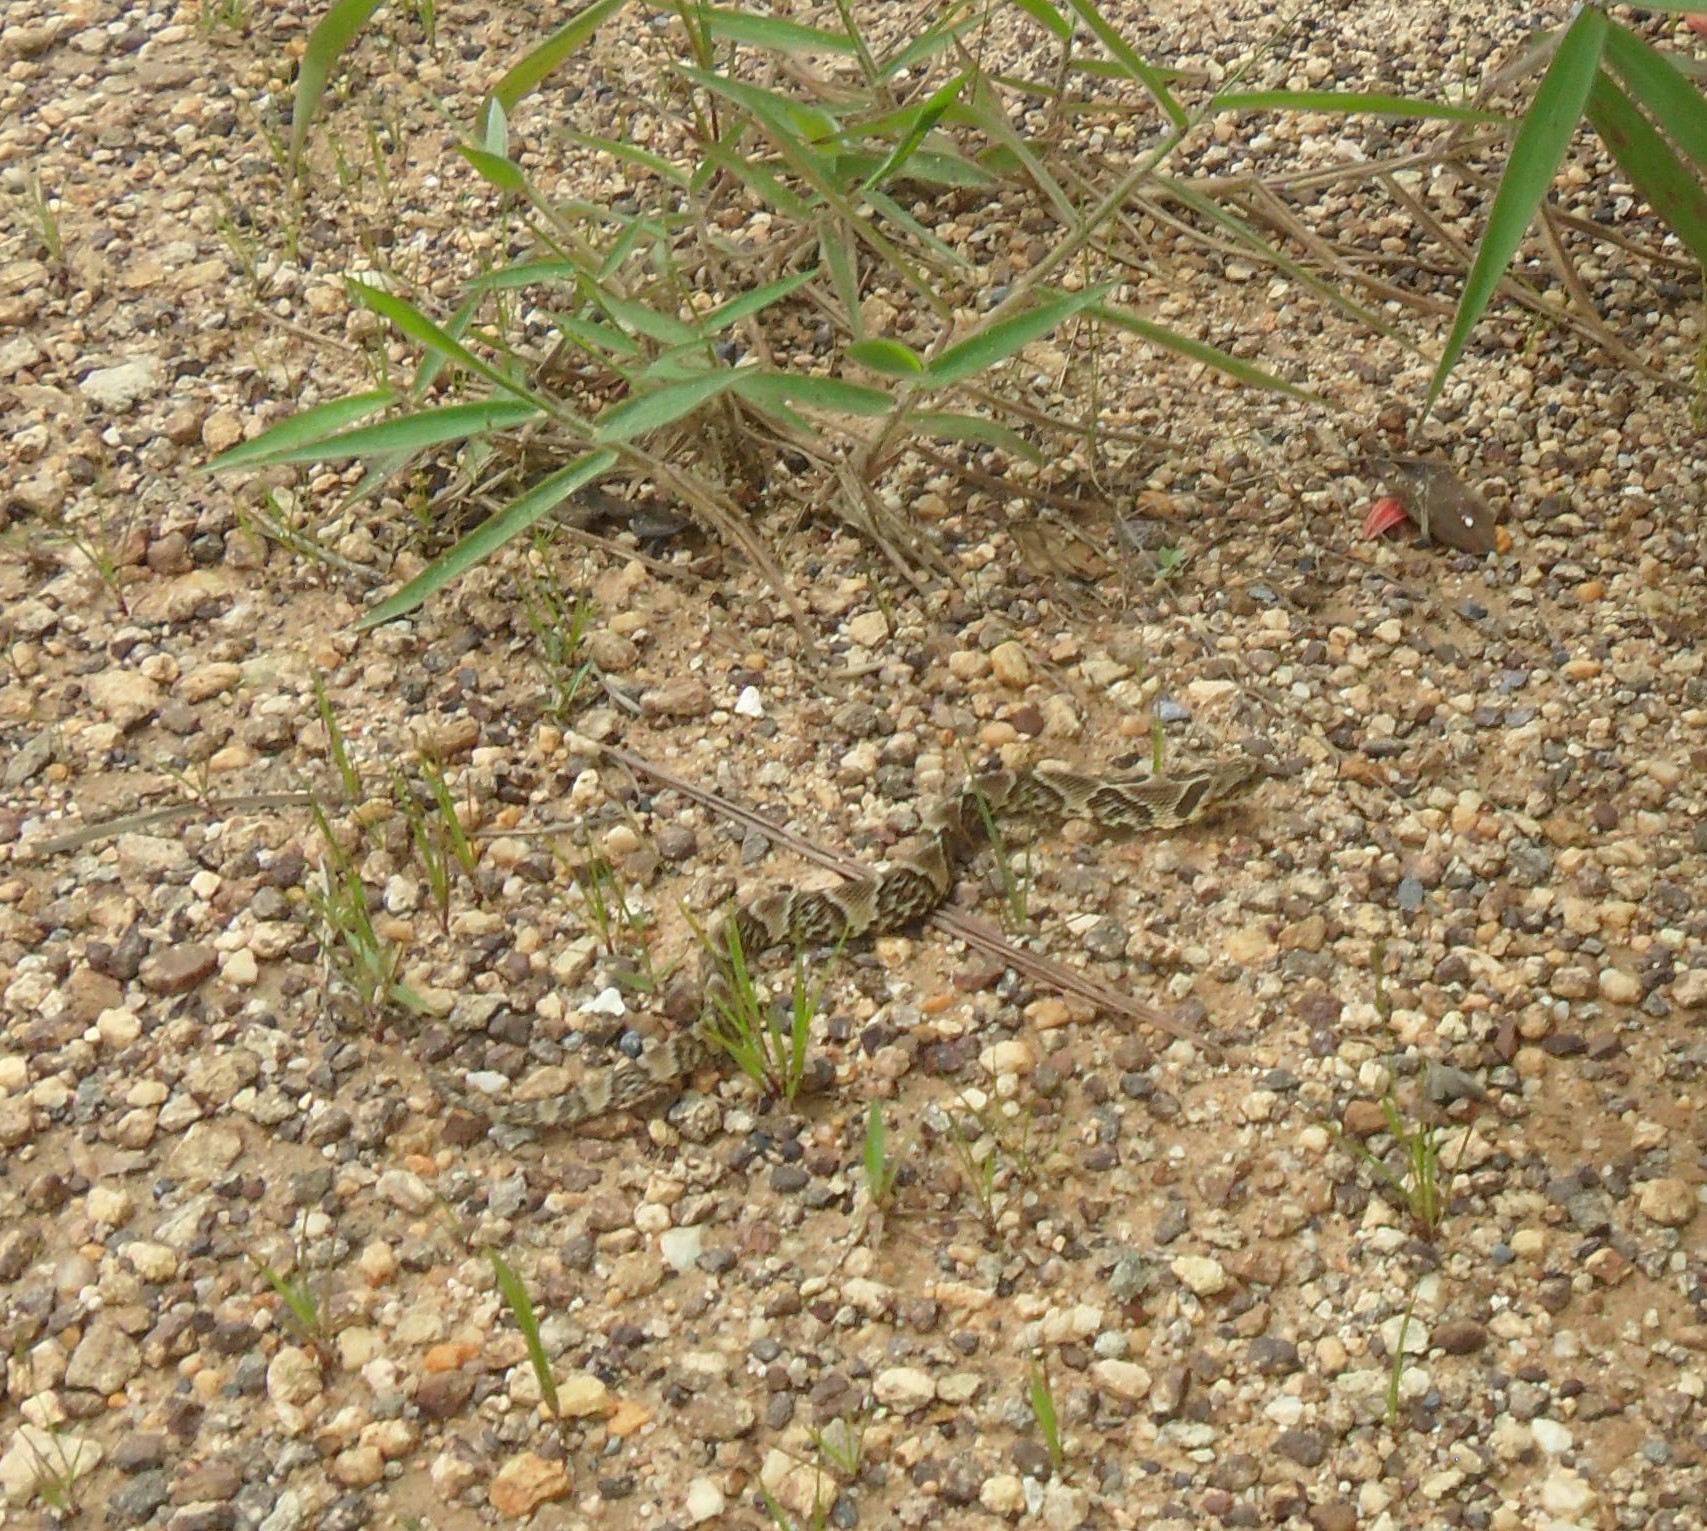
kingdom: Animalia
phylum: Chordata
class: Squamata
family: Colubridae
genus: Xenodon
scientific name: Xenodon merremii
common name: Wagler's snake
